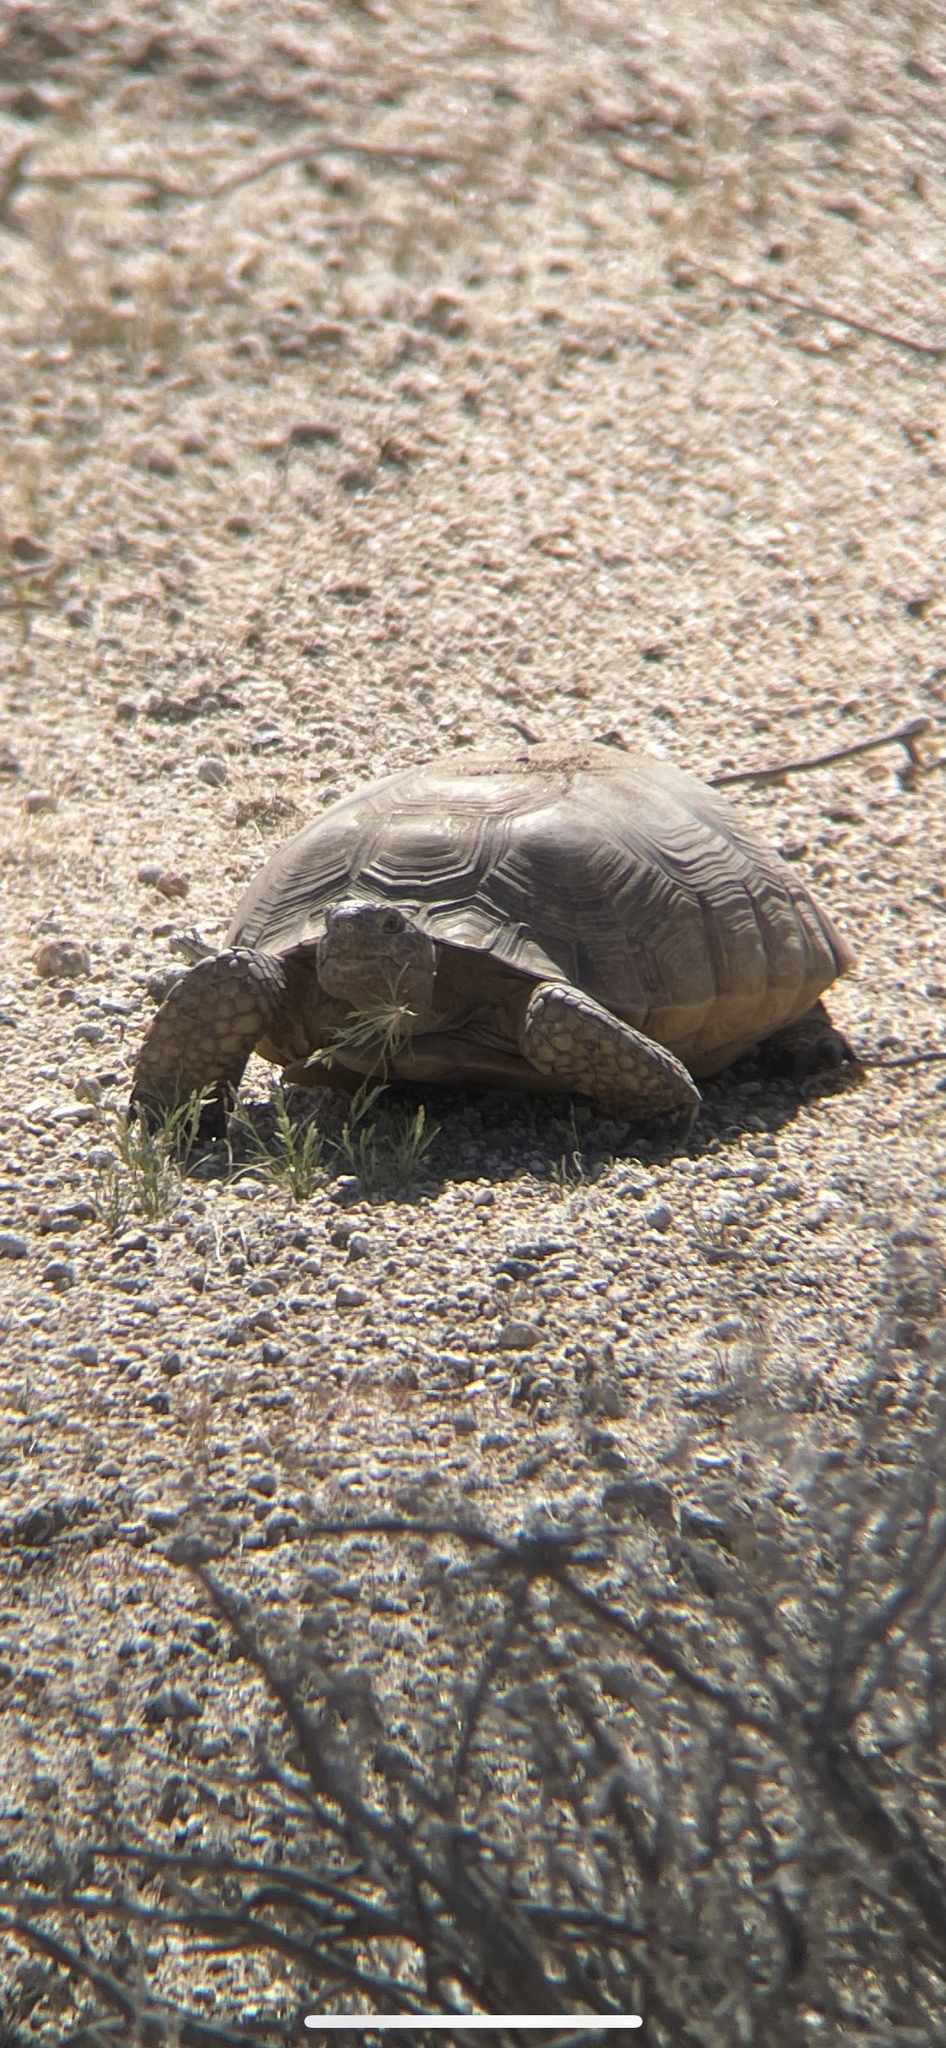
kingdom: Animalia
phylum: Chordata
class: Testudines
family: Testudinidae
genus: Gopherus
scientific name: Gopherus agassizii
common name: Mojave desert tortoise
